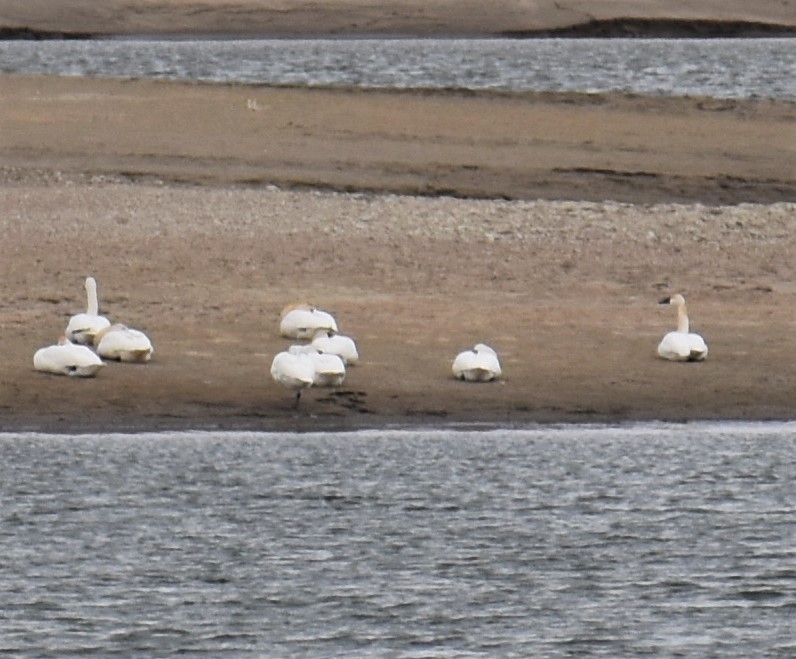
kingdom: Animalia
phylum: Chordata
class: Aves
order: Anseriformes
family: Anatidae
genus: Cygnus
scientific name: Cygnus columbianus
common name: Tundra swan
